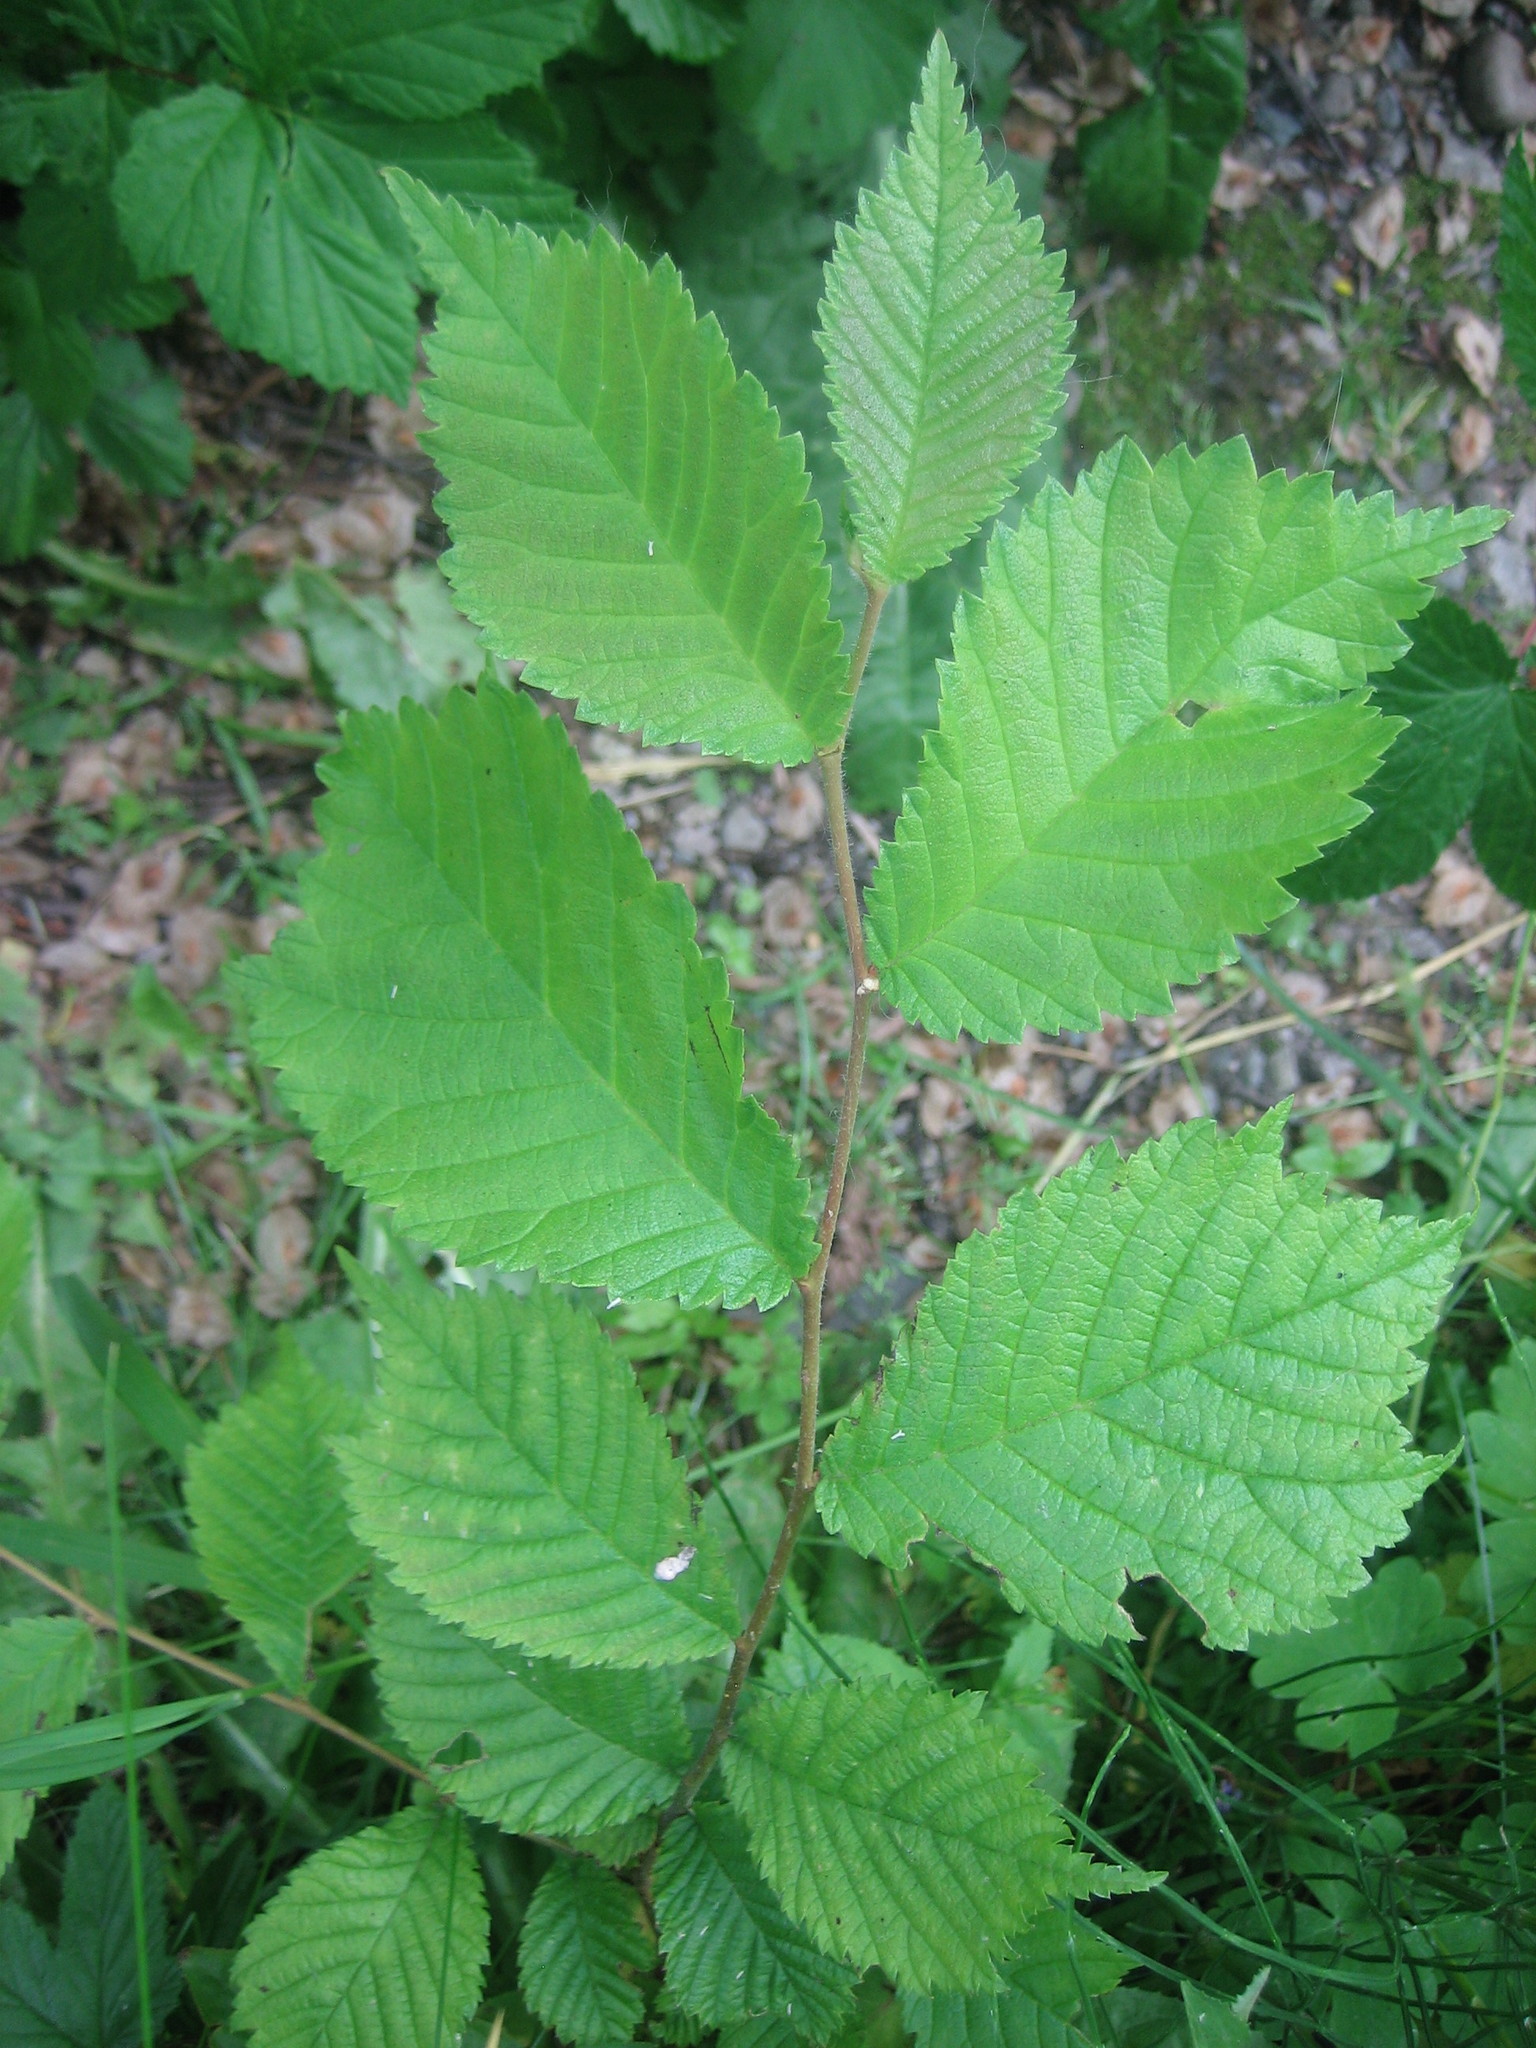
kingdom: Plantae
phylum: Tracheophyta
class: Magnoliopsida
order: Rosales
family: Ulmaceae
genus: Ulmus
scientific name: Ulmus glabra
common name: Wych elm
